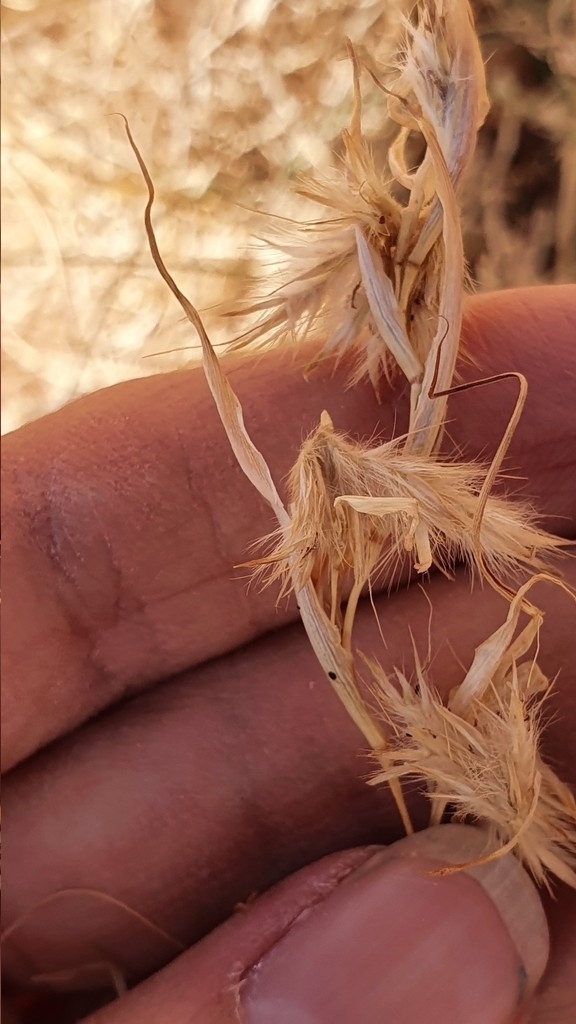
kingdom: Plantae
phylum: Tracheophyta
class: Liliopsida
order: Poales
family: Poaceae
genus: Cymbopogon
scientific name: Cymbopogon schoenanthus
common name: Geranium grass
